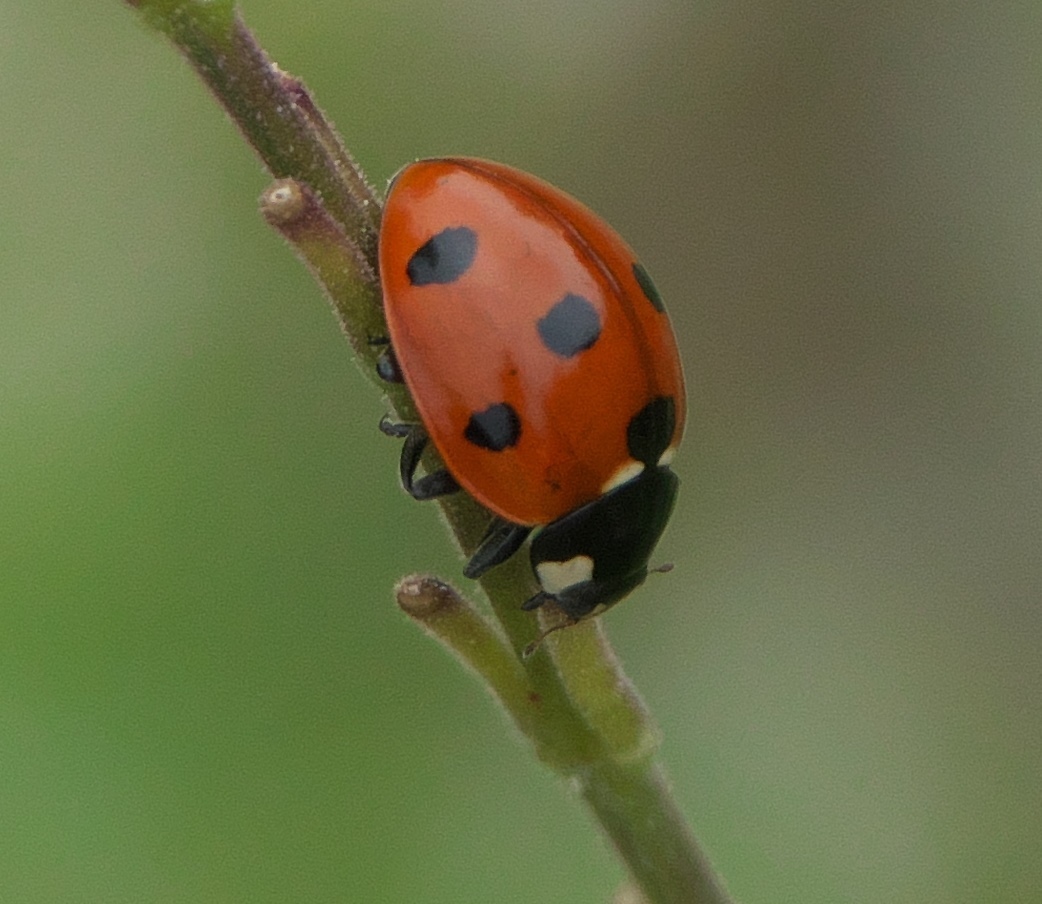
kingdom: Animalia
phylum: Arthropoda
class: Insecta
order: Coleoptera
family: Coccinellidae
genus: Coccinella
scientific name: Coccinella septempunctata
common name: Sevenspotted lady beetle
